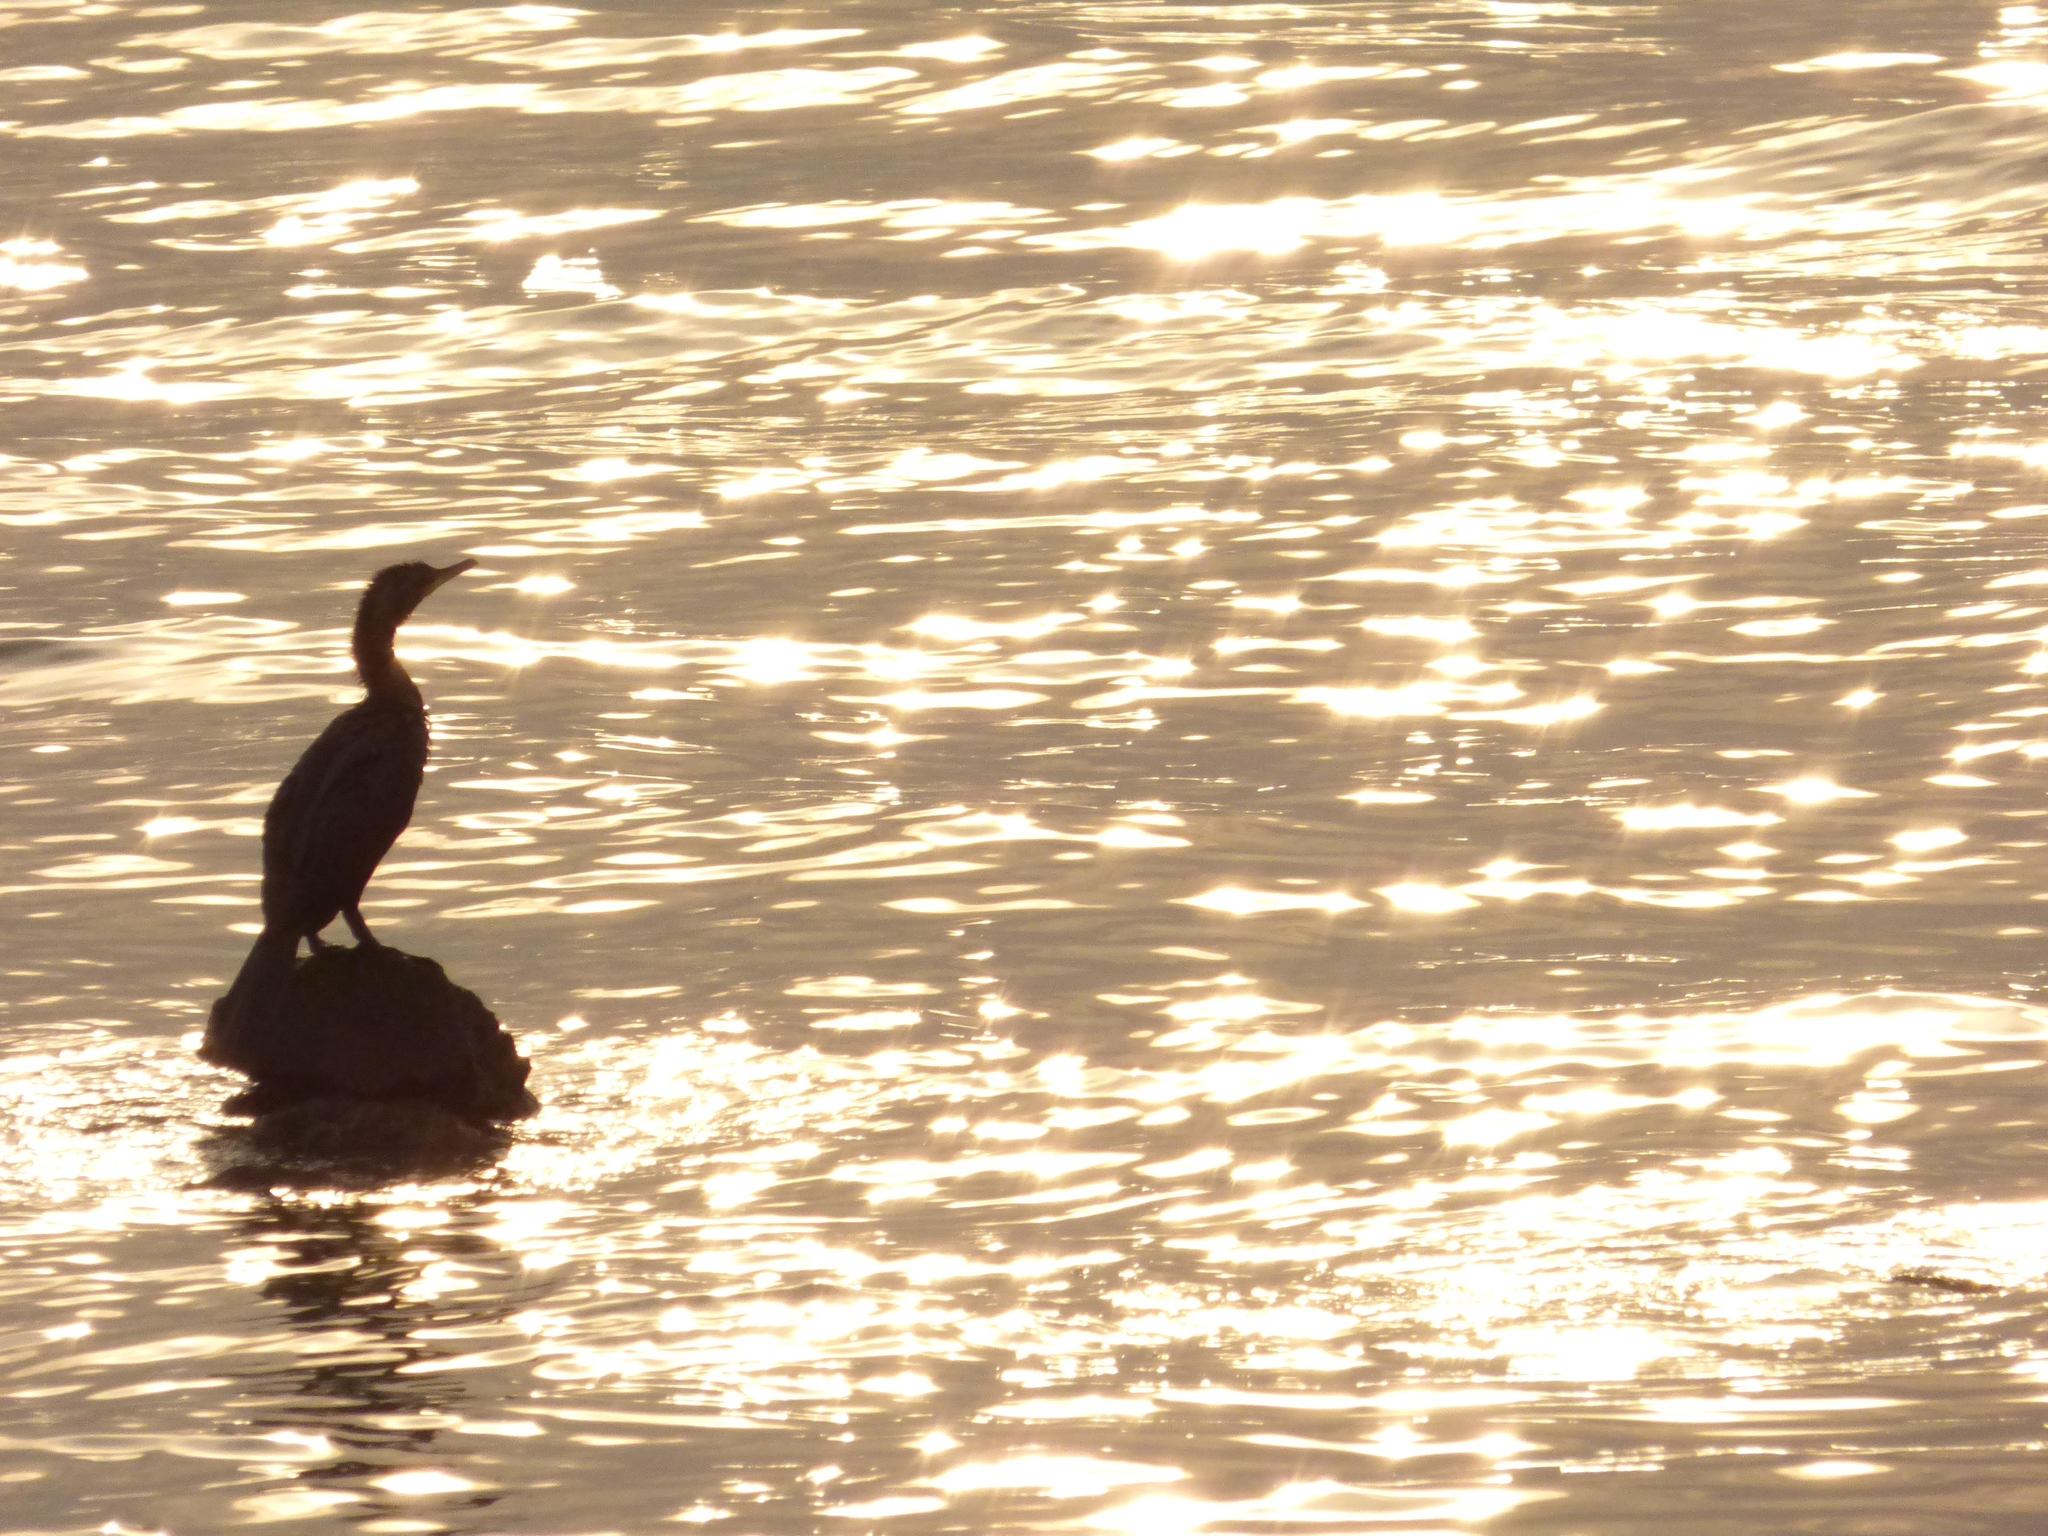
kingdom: Animalia
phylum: Chordata
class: Aves
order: Suliformes
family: Phalacrocoracidae
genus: Phalacrocorax
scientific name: Phalacrocorax brasilianus
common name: Neotropic cormorant
